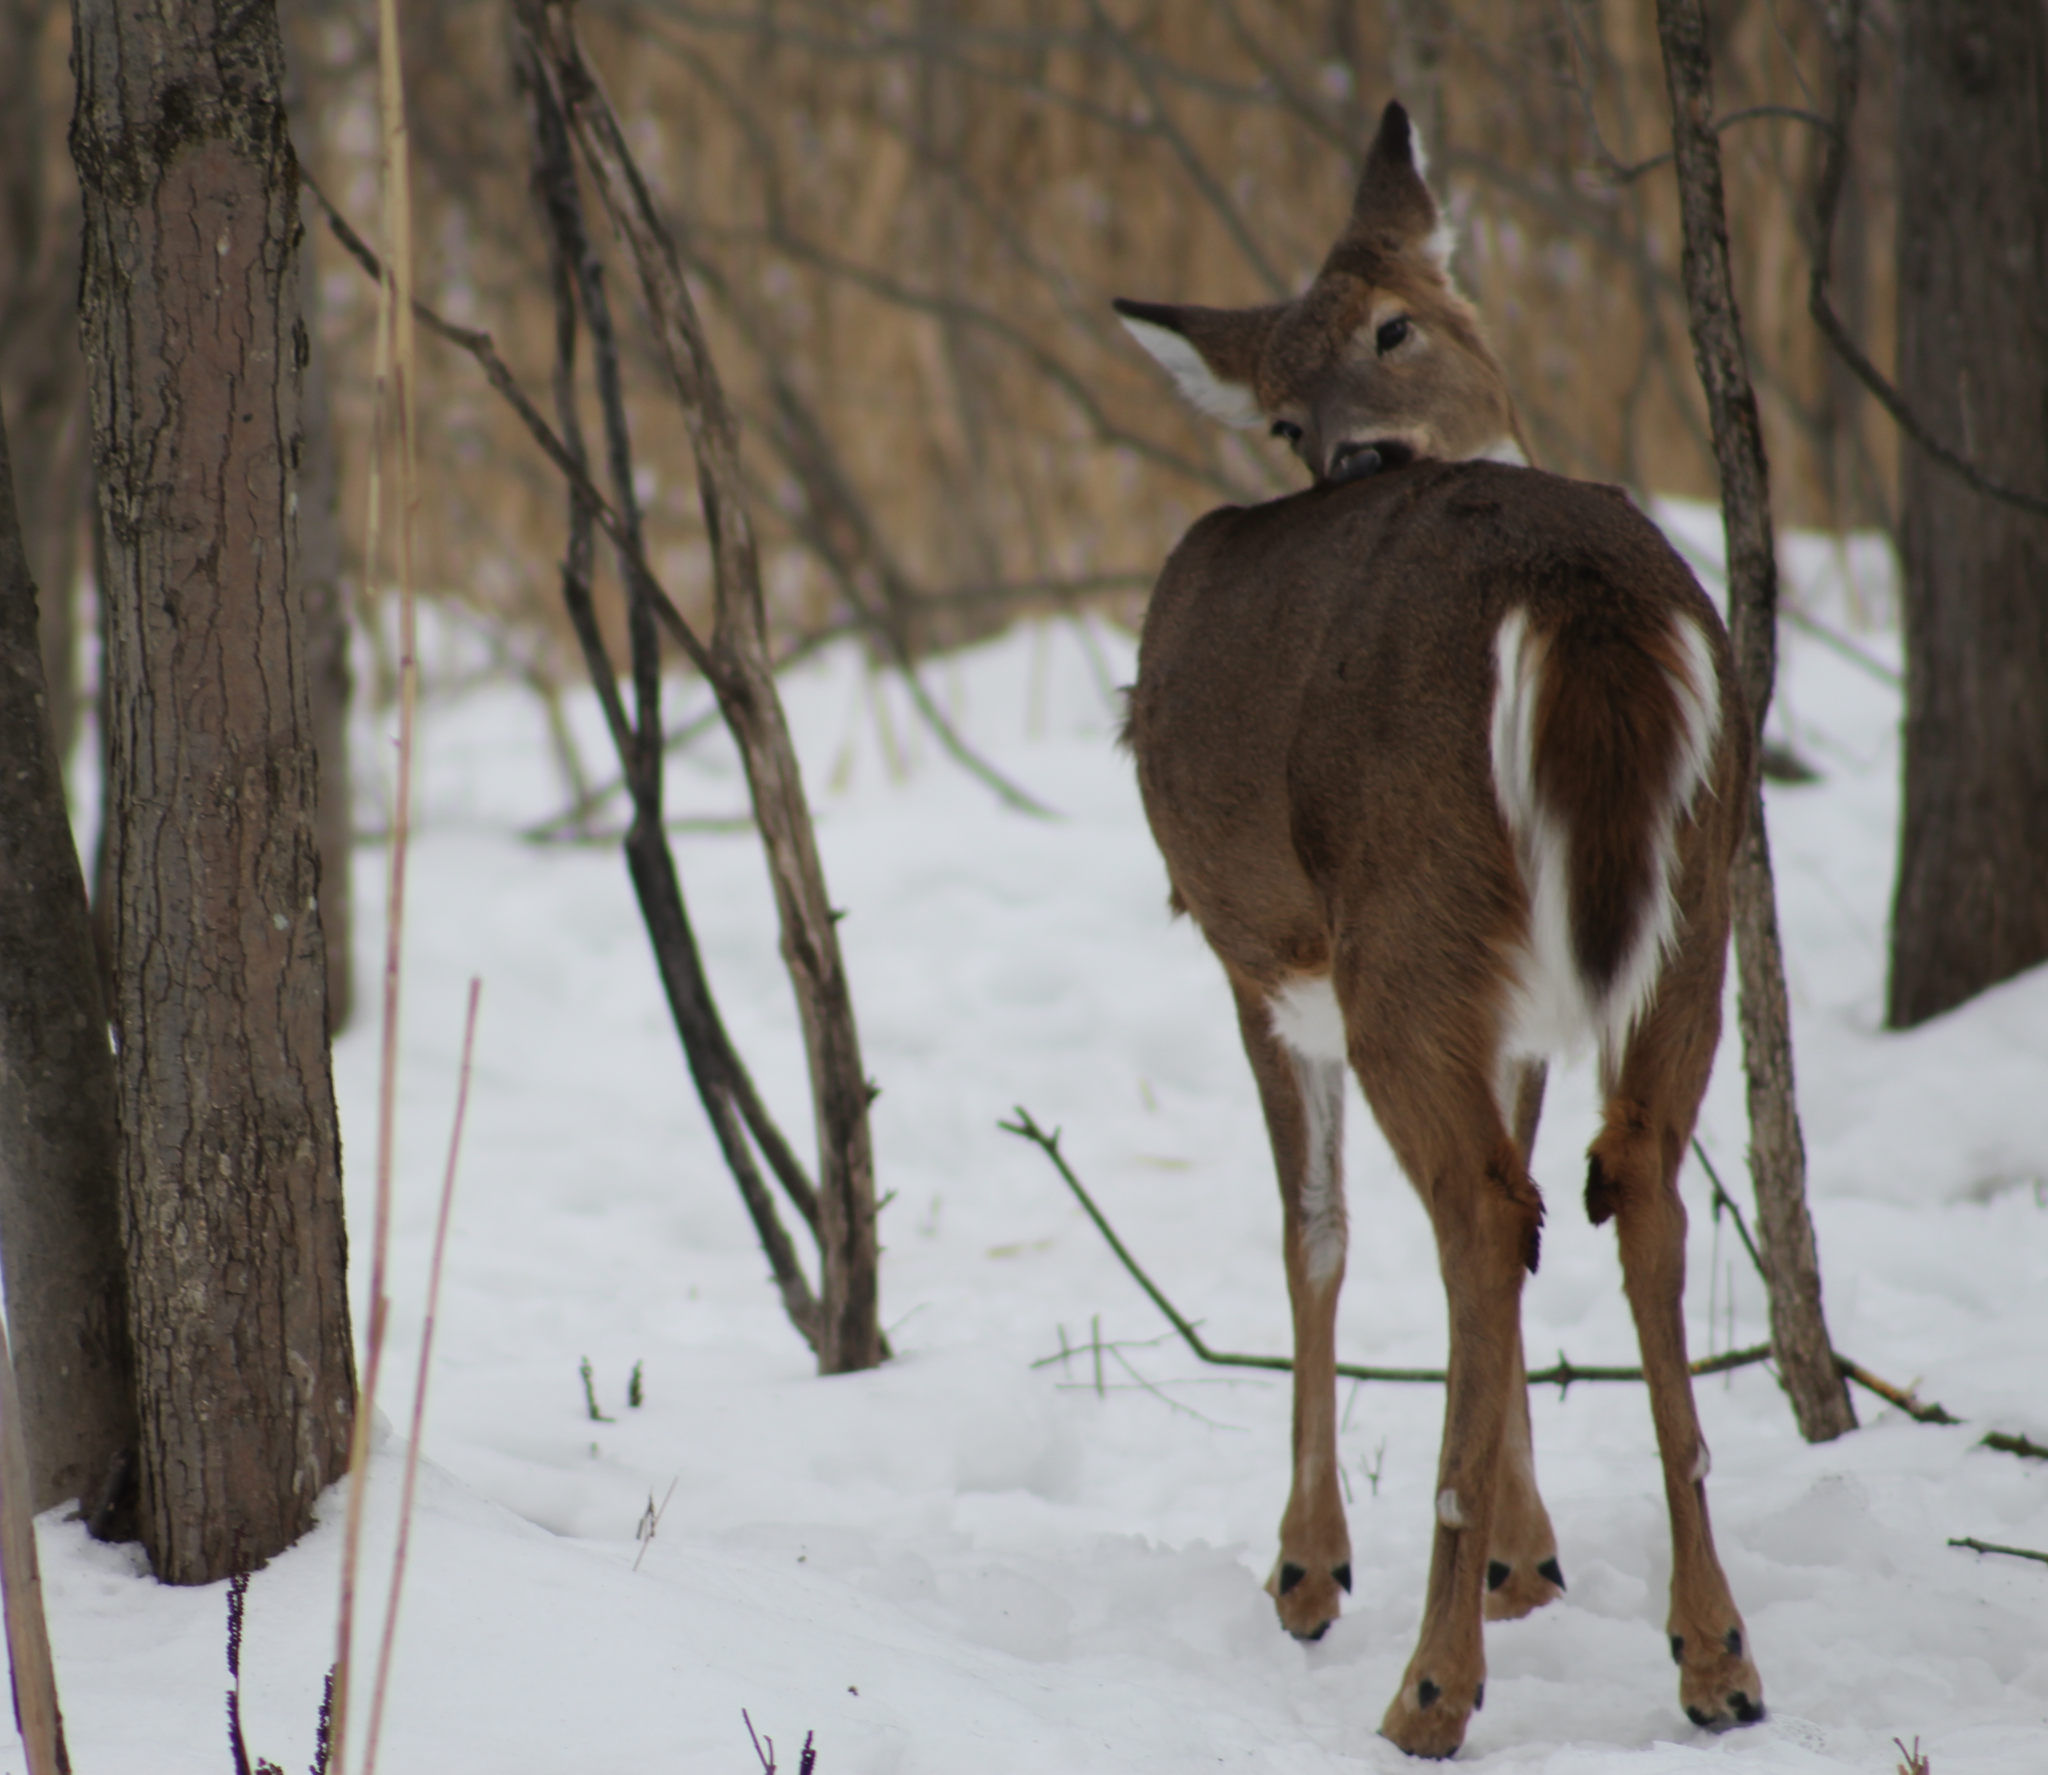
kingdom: Animalia
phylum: Chordata
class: Mammalia
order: Artiodactyla
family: Cervidae
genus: Odocoileus
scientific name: Odocoileus virginianus
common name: White-tailed deer
